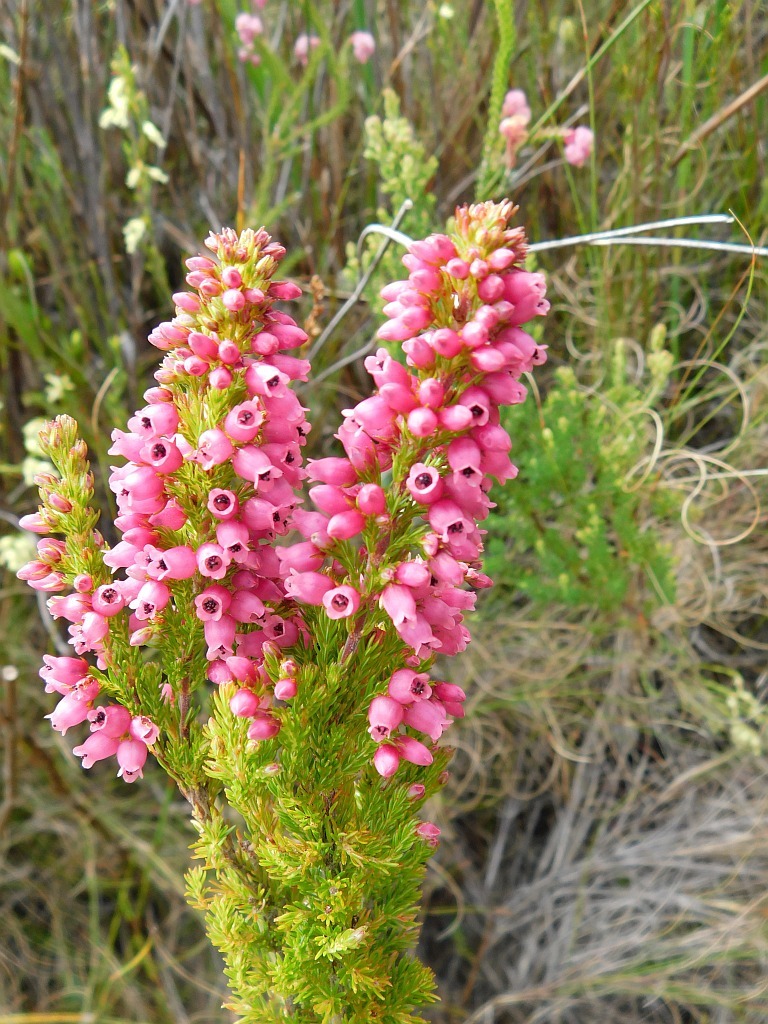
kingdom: Plantae
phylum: Tracheophyta
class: Magnoliopsida
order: Ericales
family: Ericaceae
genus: Erica
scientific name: Erica sitiens
